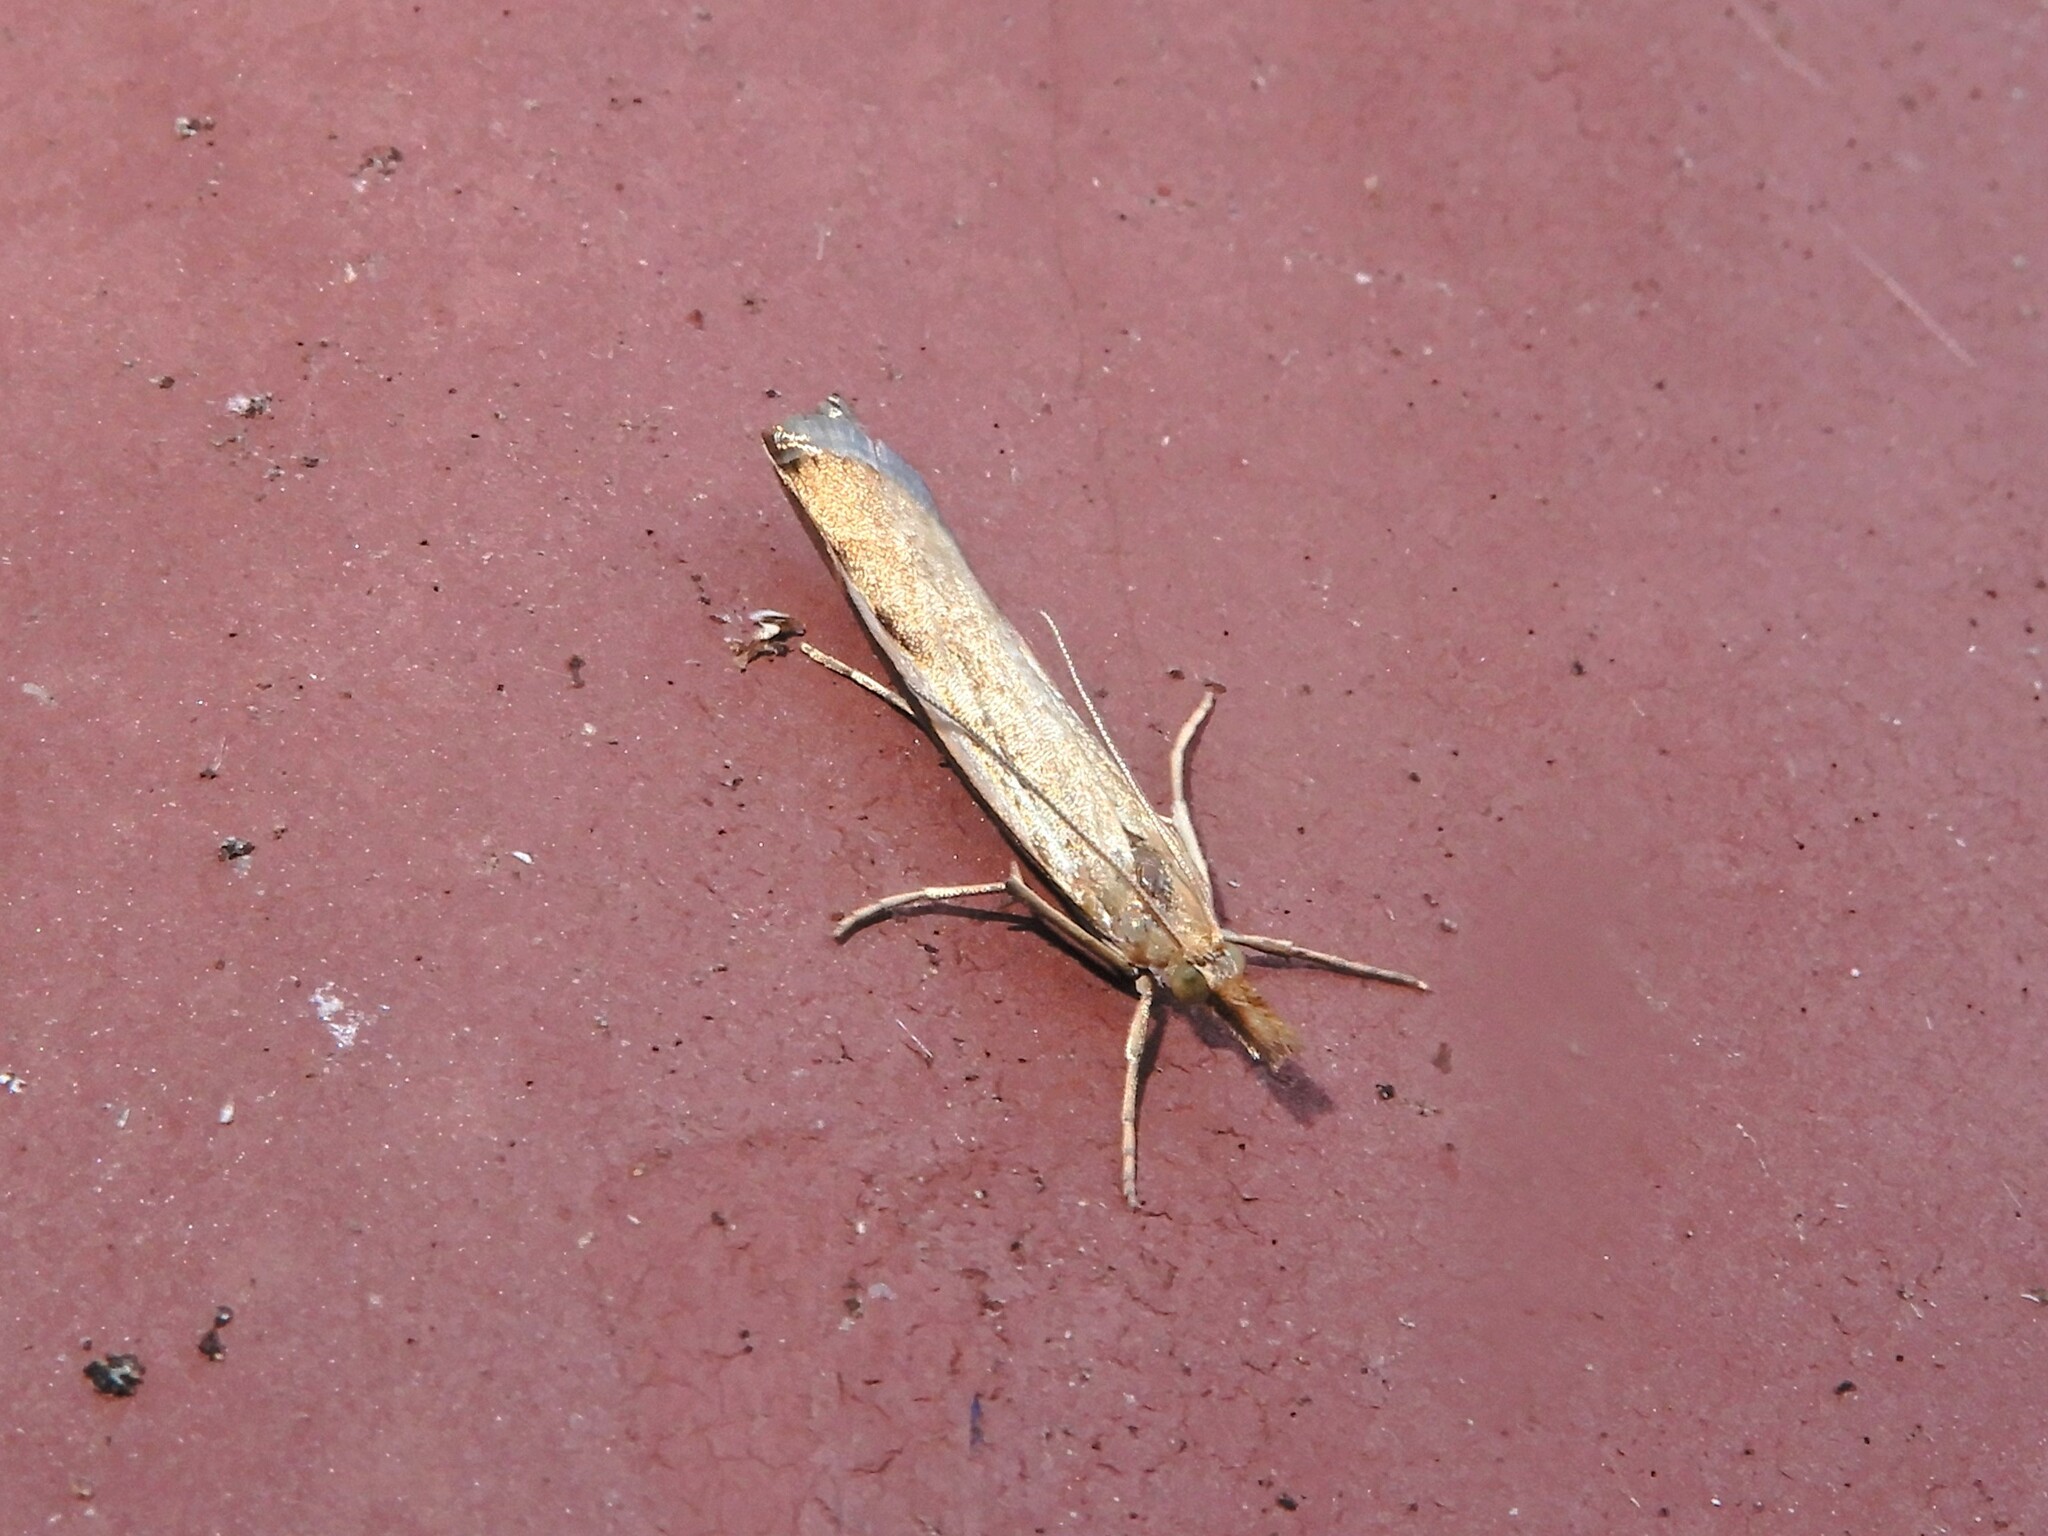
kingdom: Animalia
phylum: Arthropoda
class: Insecta
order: Lepidoptera
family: Crambidae
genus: Orocrambus
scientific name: Orocrambus flexuosellus
